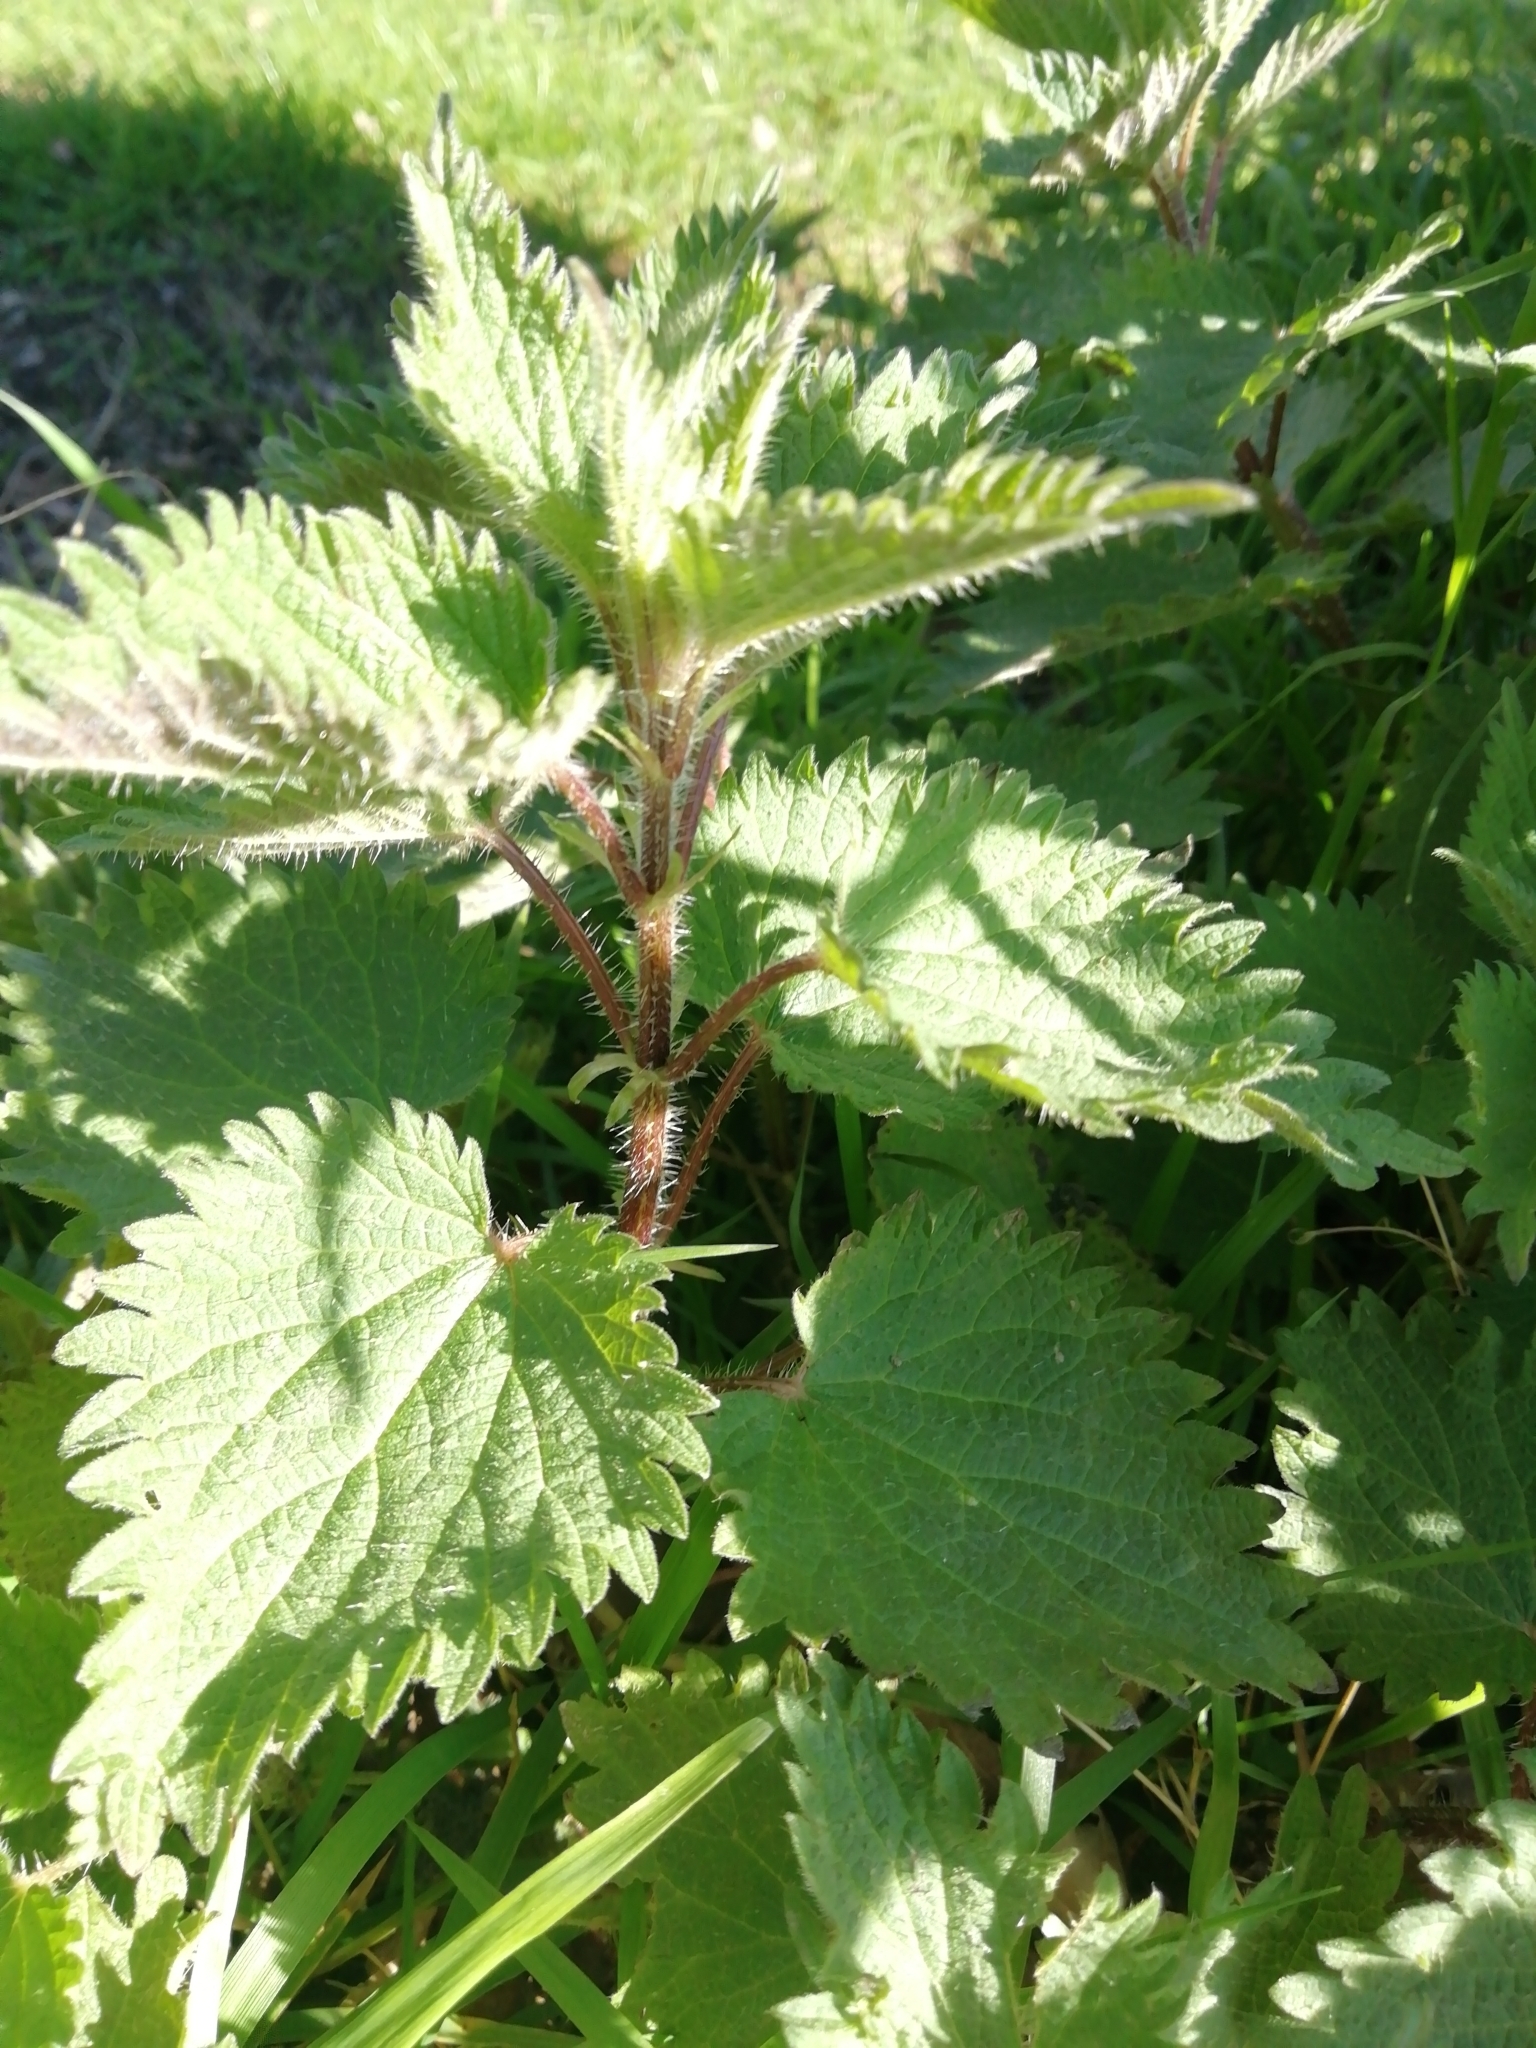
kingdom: Plantae
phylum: Tracheophyta
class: Magnoliopsida
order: Rosales
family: Urticaceae
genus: Urtica
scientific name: Urtica dioica
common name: Common nettle
